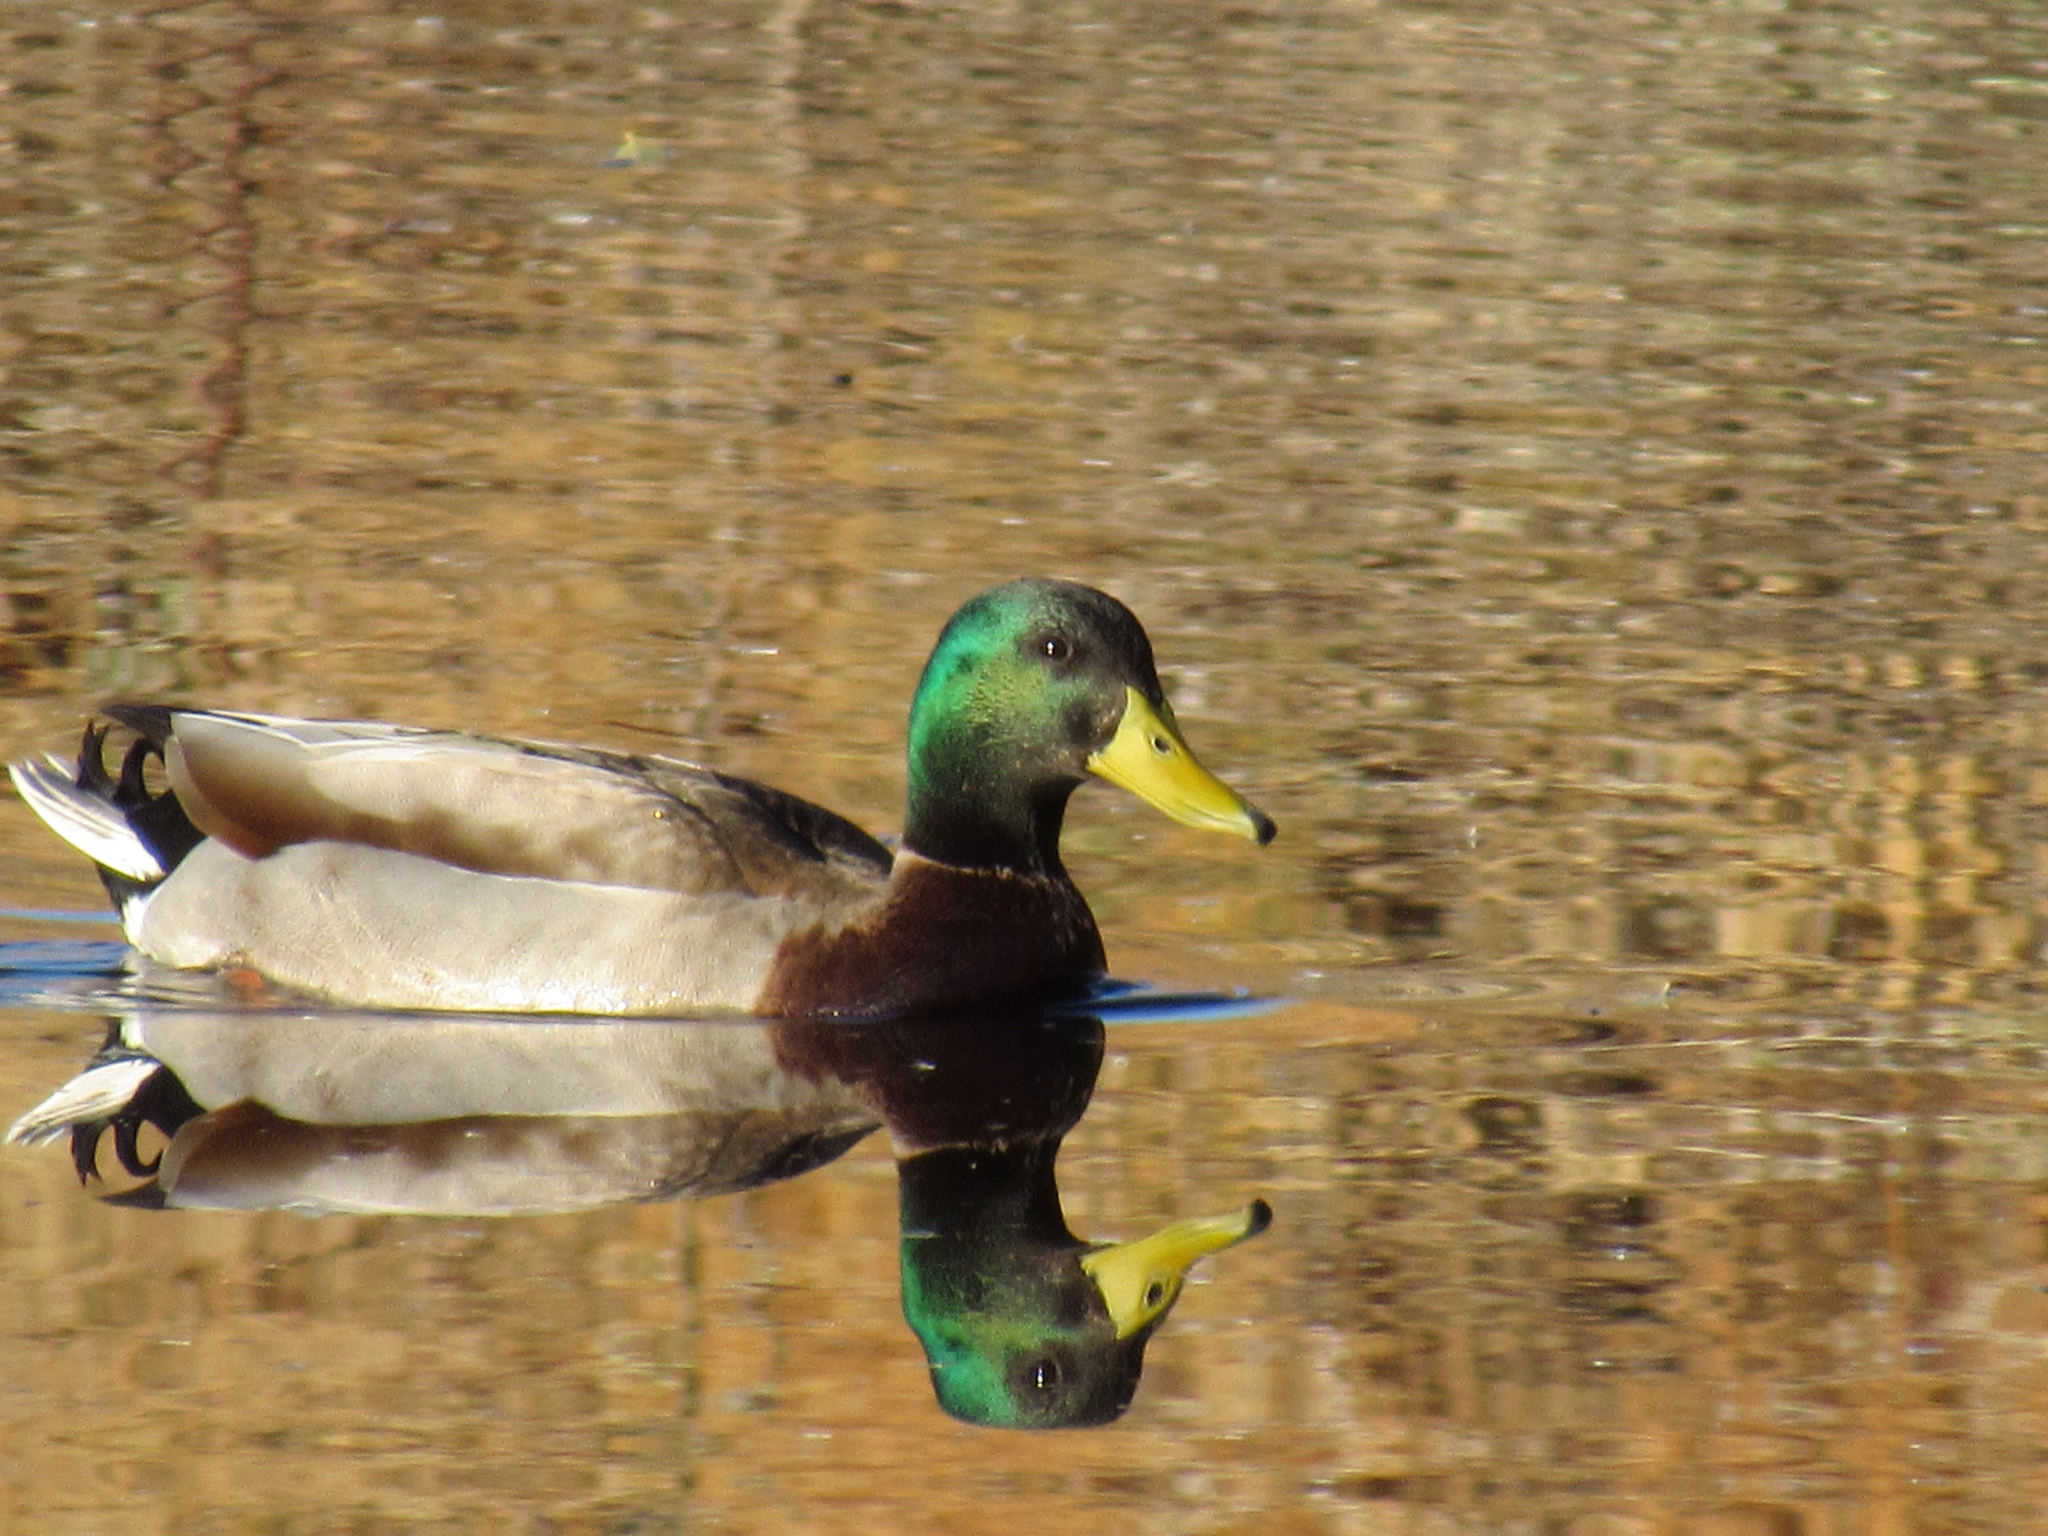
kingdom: Animalia
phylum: Chordata
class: Aves
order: Anseriformes
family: Anatidae
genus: Anas
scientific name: Anas platyrhynchos
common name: Mallard
